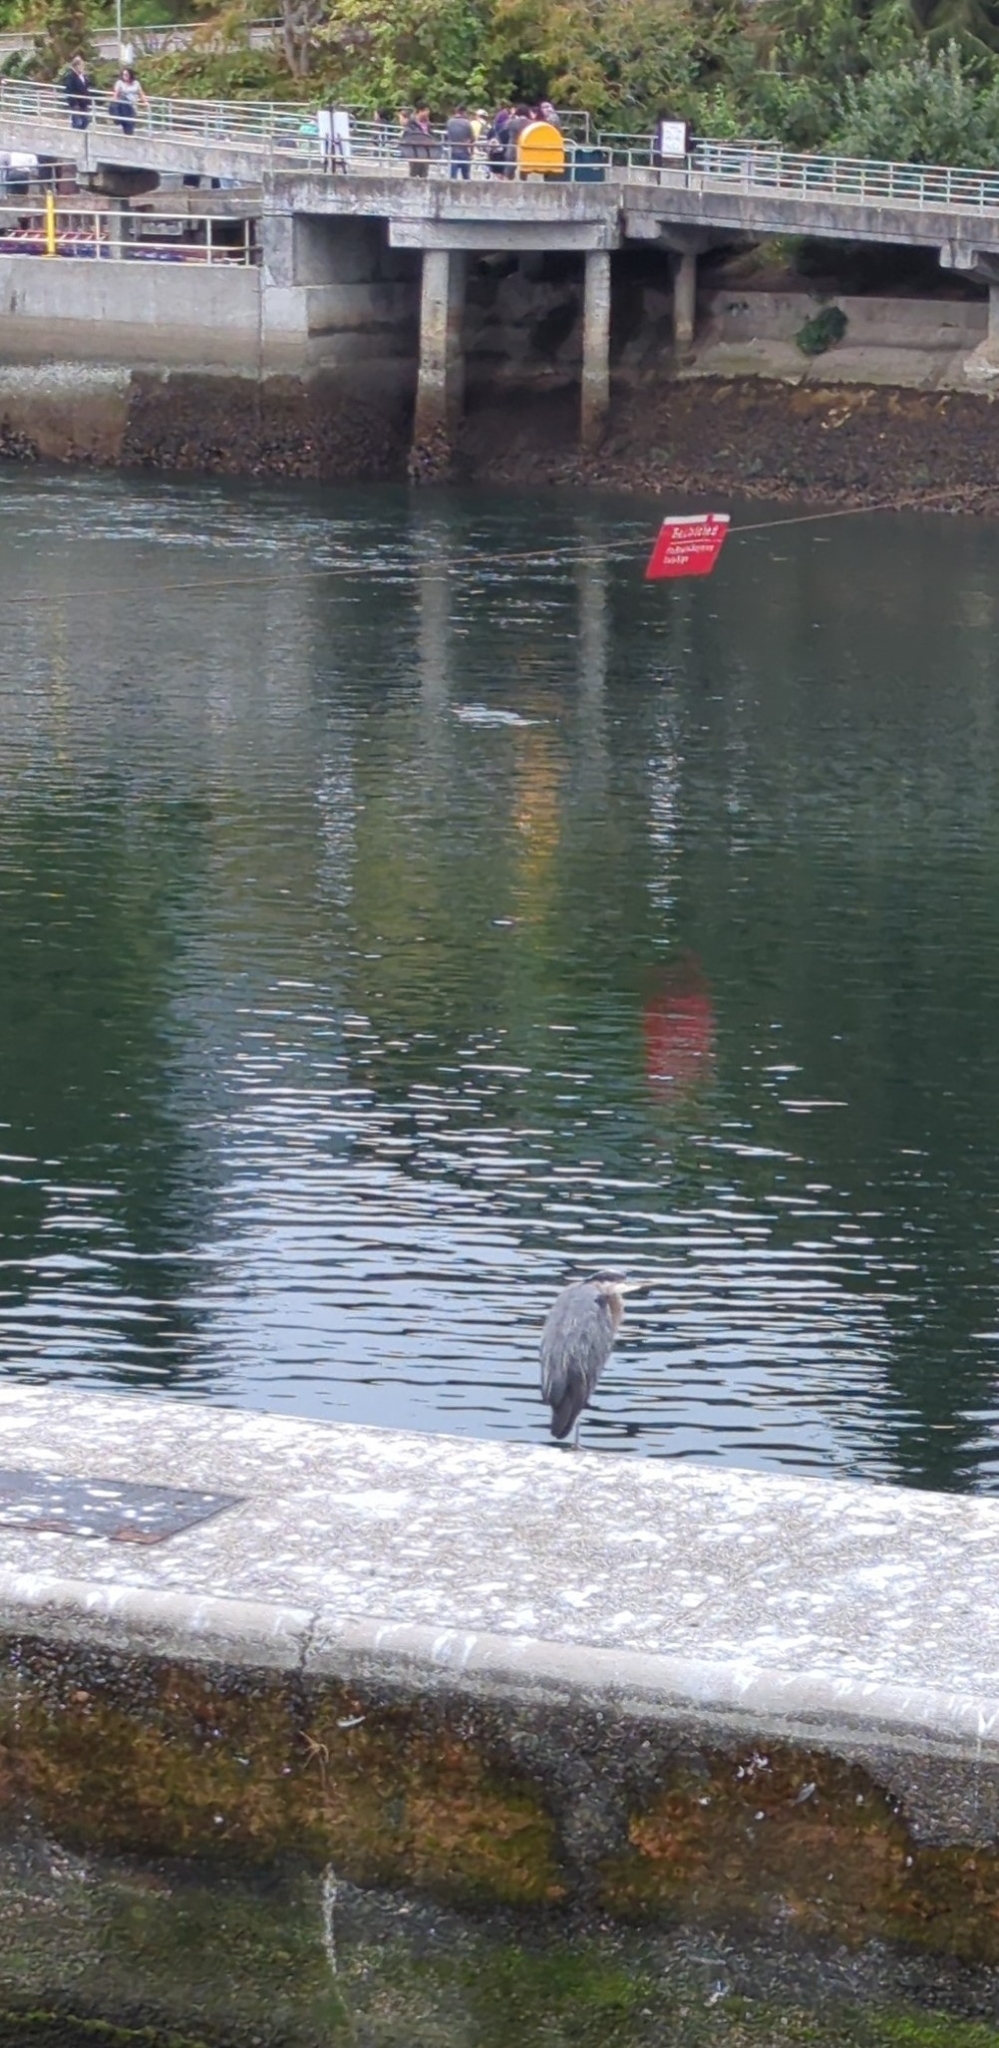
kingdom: Animalia
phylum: Chordata
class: Aves
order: Pelecaniformes
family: Ardeidae
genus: Ardea
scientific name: Ardea herodias
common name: Great blue heron
